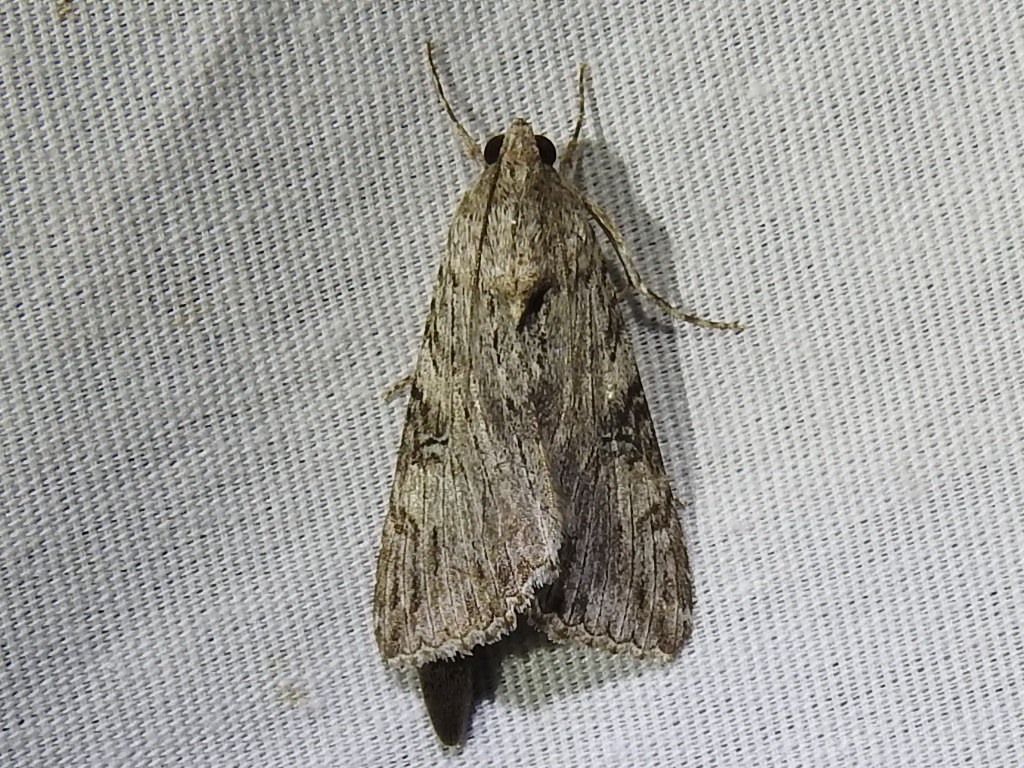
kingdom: Animalia
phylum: Arthropoda
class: Insecta
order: Lepidoptera
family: Erebidae
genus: Melipotis
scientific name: Melipotis jucunda
